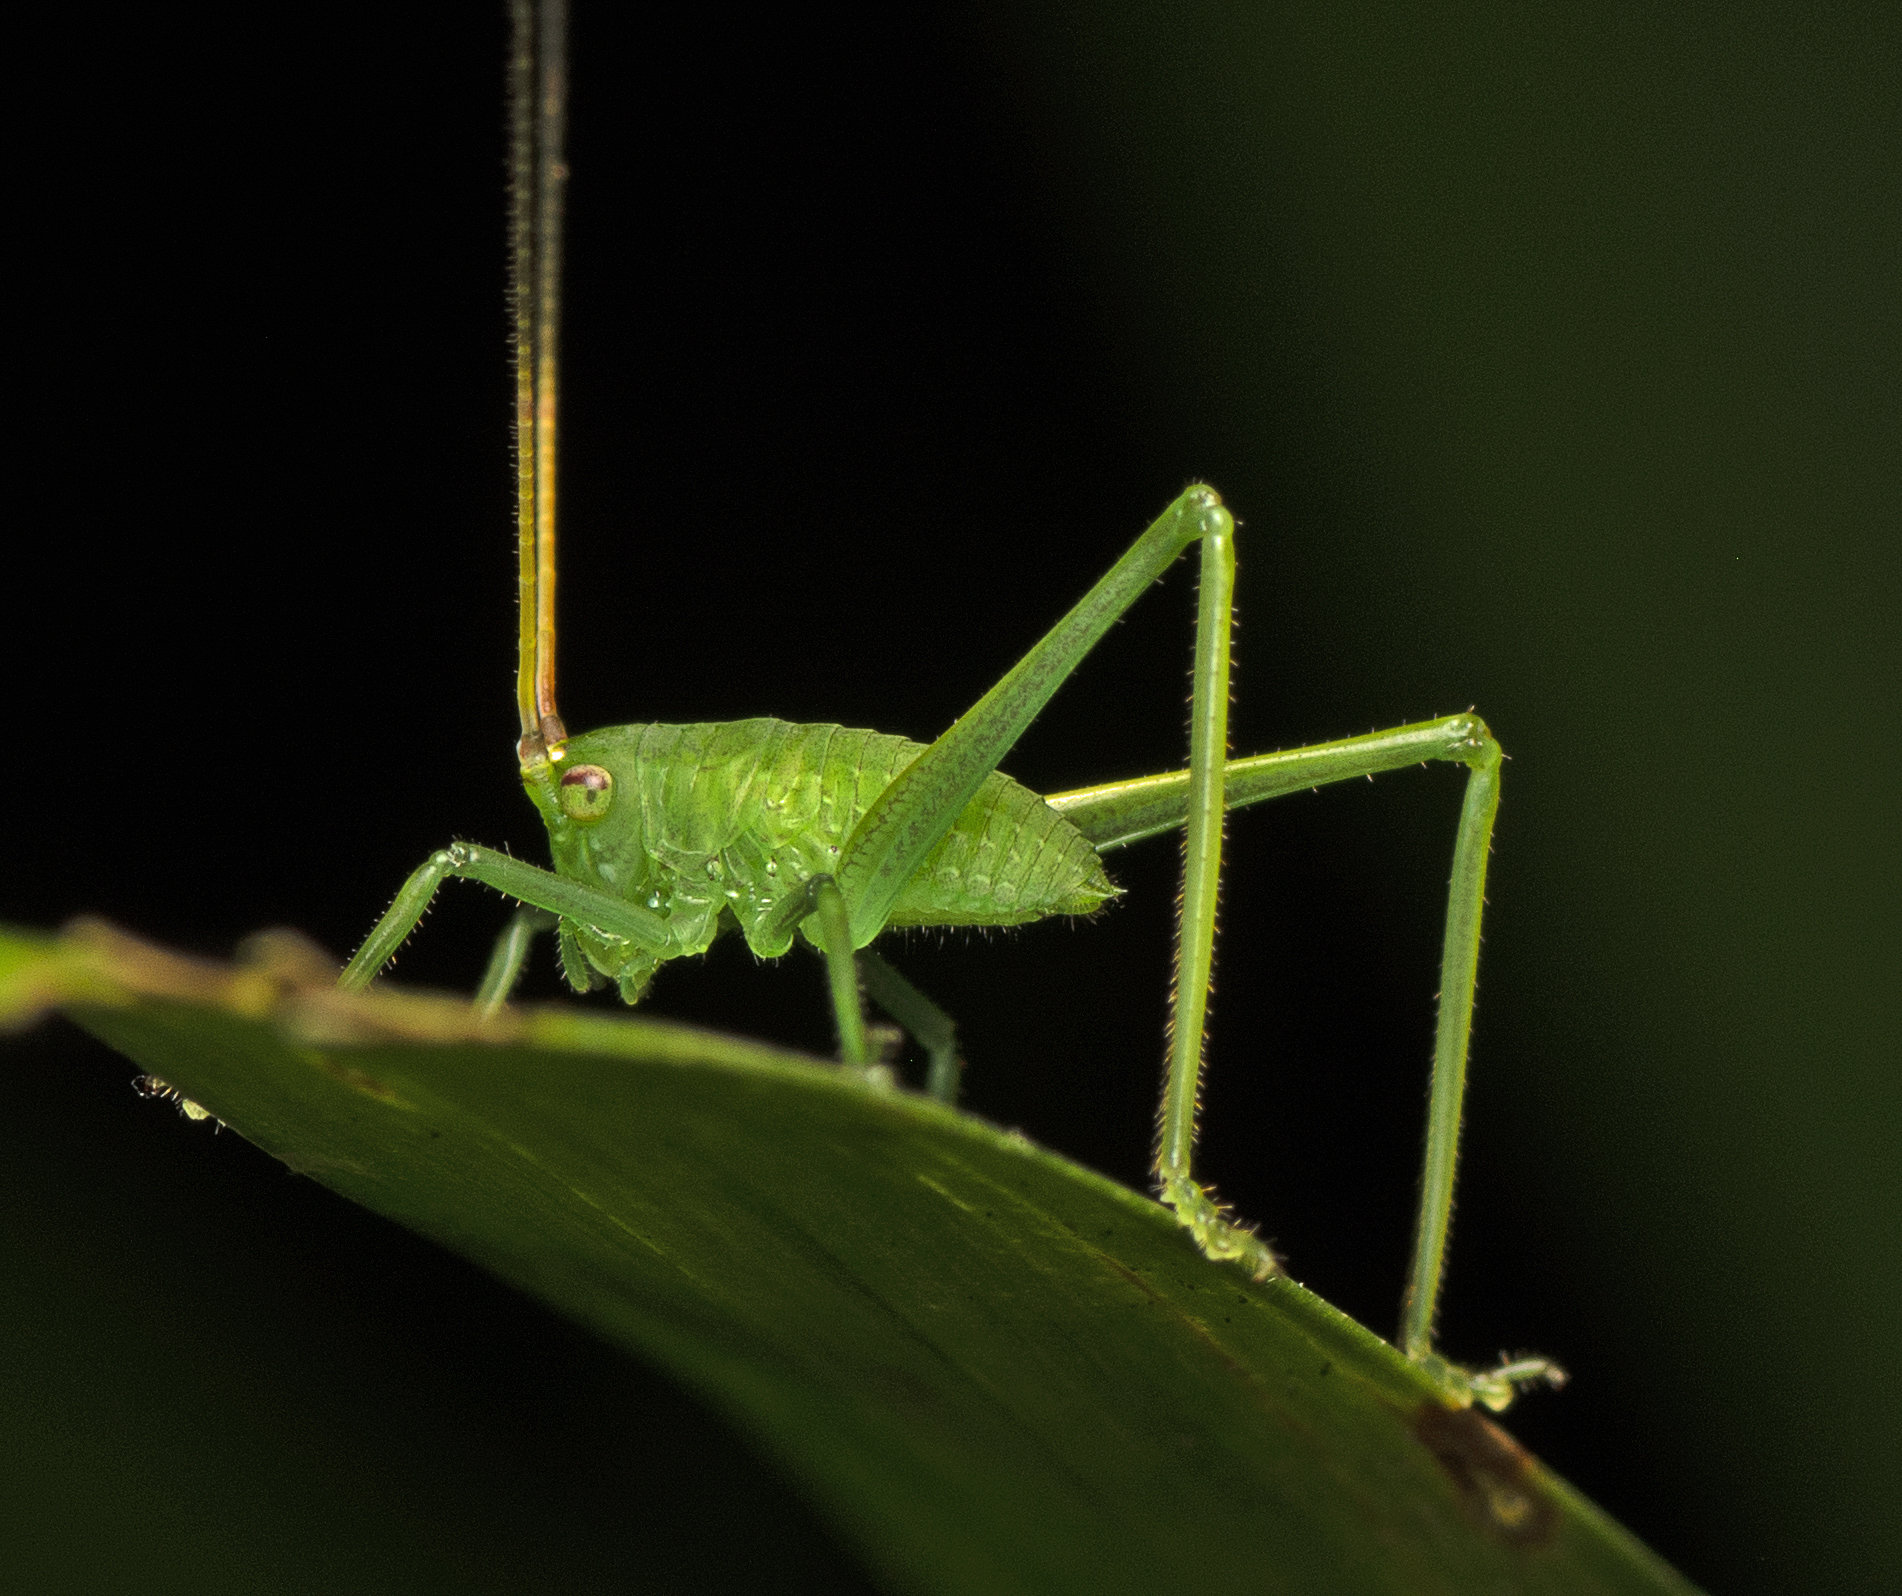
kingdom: Animalia
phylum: Arthropoda
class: Insecta
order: Orthoptera
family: Tettigoniidae
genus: Phyllophorella
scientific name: Phyllophorella queenslandica
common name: Queensland small hooded katydid
